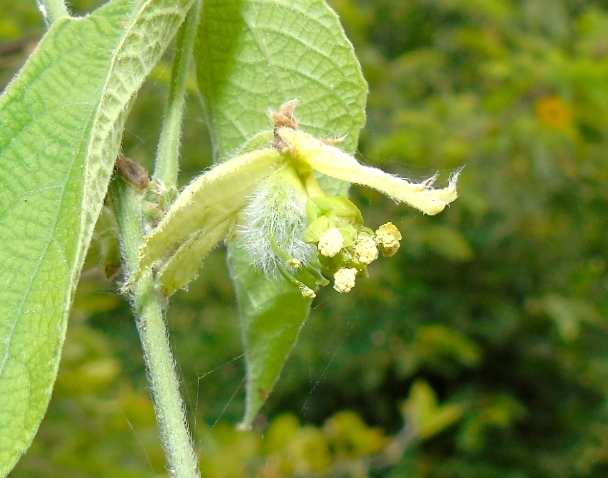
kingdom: Plantae
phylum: Tracheophyta
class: Magnoliopsida
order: Malpighiales
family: Euphorbiaceae
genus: Dalechampia
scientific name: Dalechampia scandens
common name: Spurgecreeper
